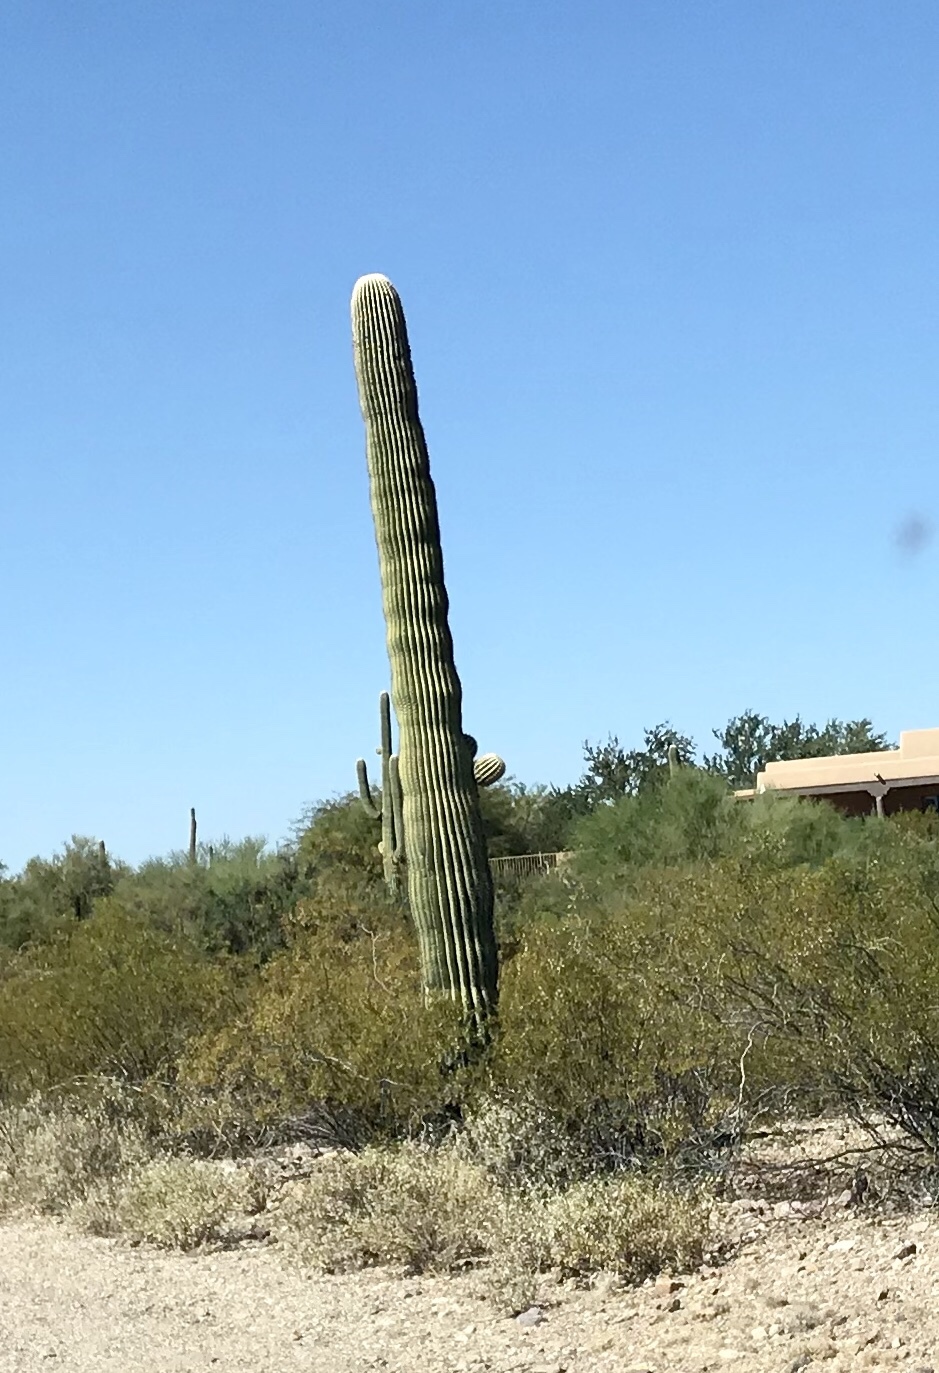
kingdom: Plantae
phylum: Tracheophyta
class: Magnoliopsida
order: Caryophyllales
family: Cactaceae
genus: Carnegiea
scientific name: Carnegiea gigantea
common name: Saguaro
